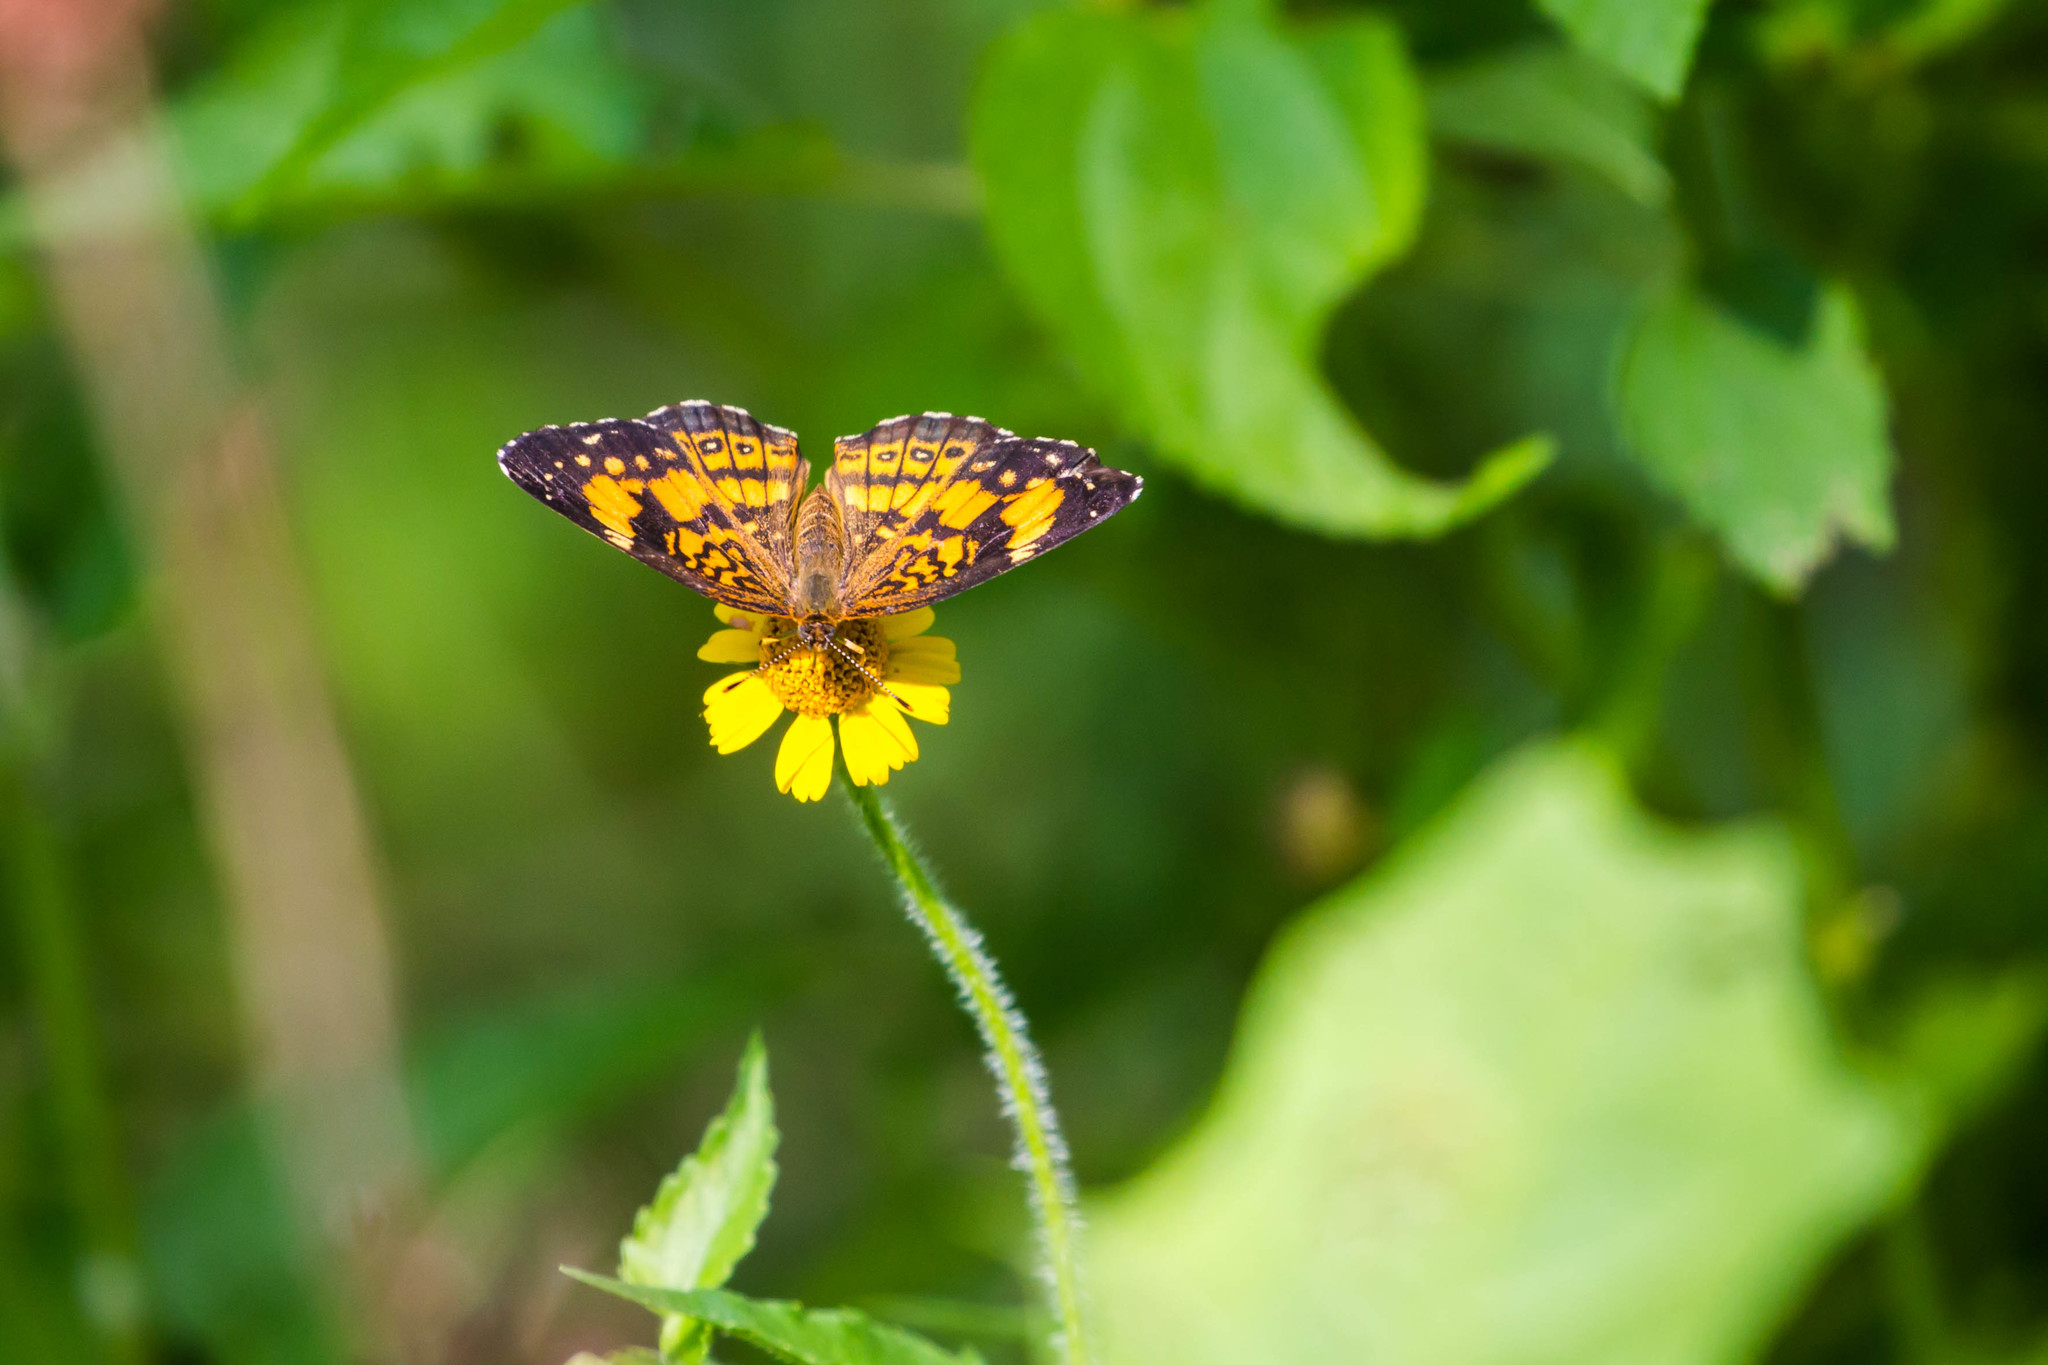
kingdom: Animalia
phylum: Arthropoda
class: Insecta
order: Lepidoptera
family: Nymphalidae
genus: Chlosyne
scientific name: Chlosyne nycteis
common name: Silvery checkerspot
